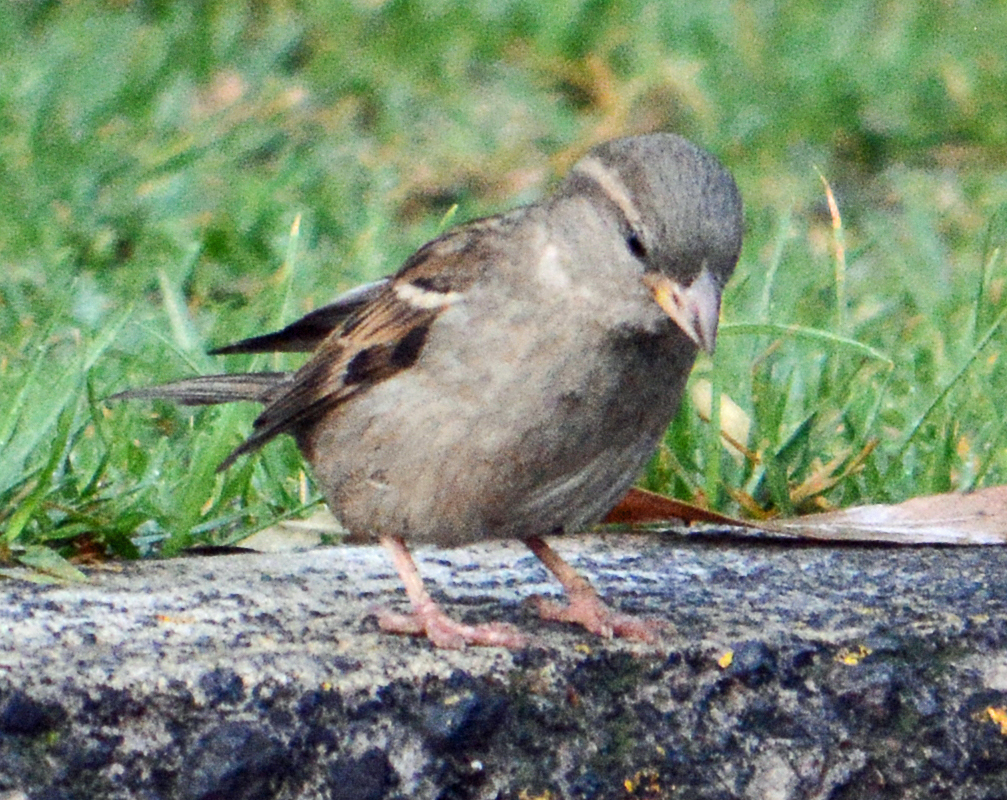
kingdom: Animalia
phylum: Chordata
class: Aves
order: Passeriformes
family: Passeridae
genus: Passer
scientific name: Passer domesticus
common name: House sparrow
